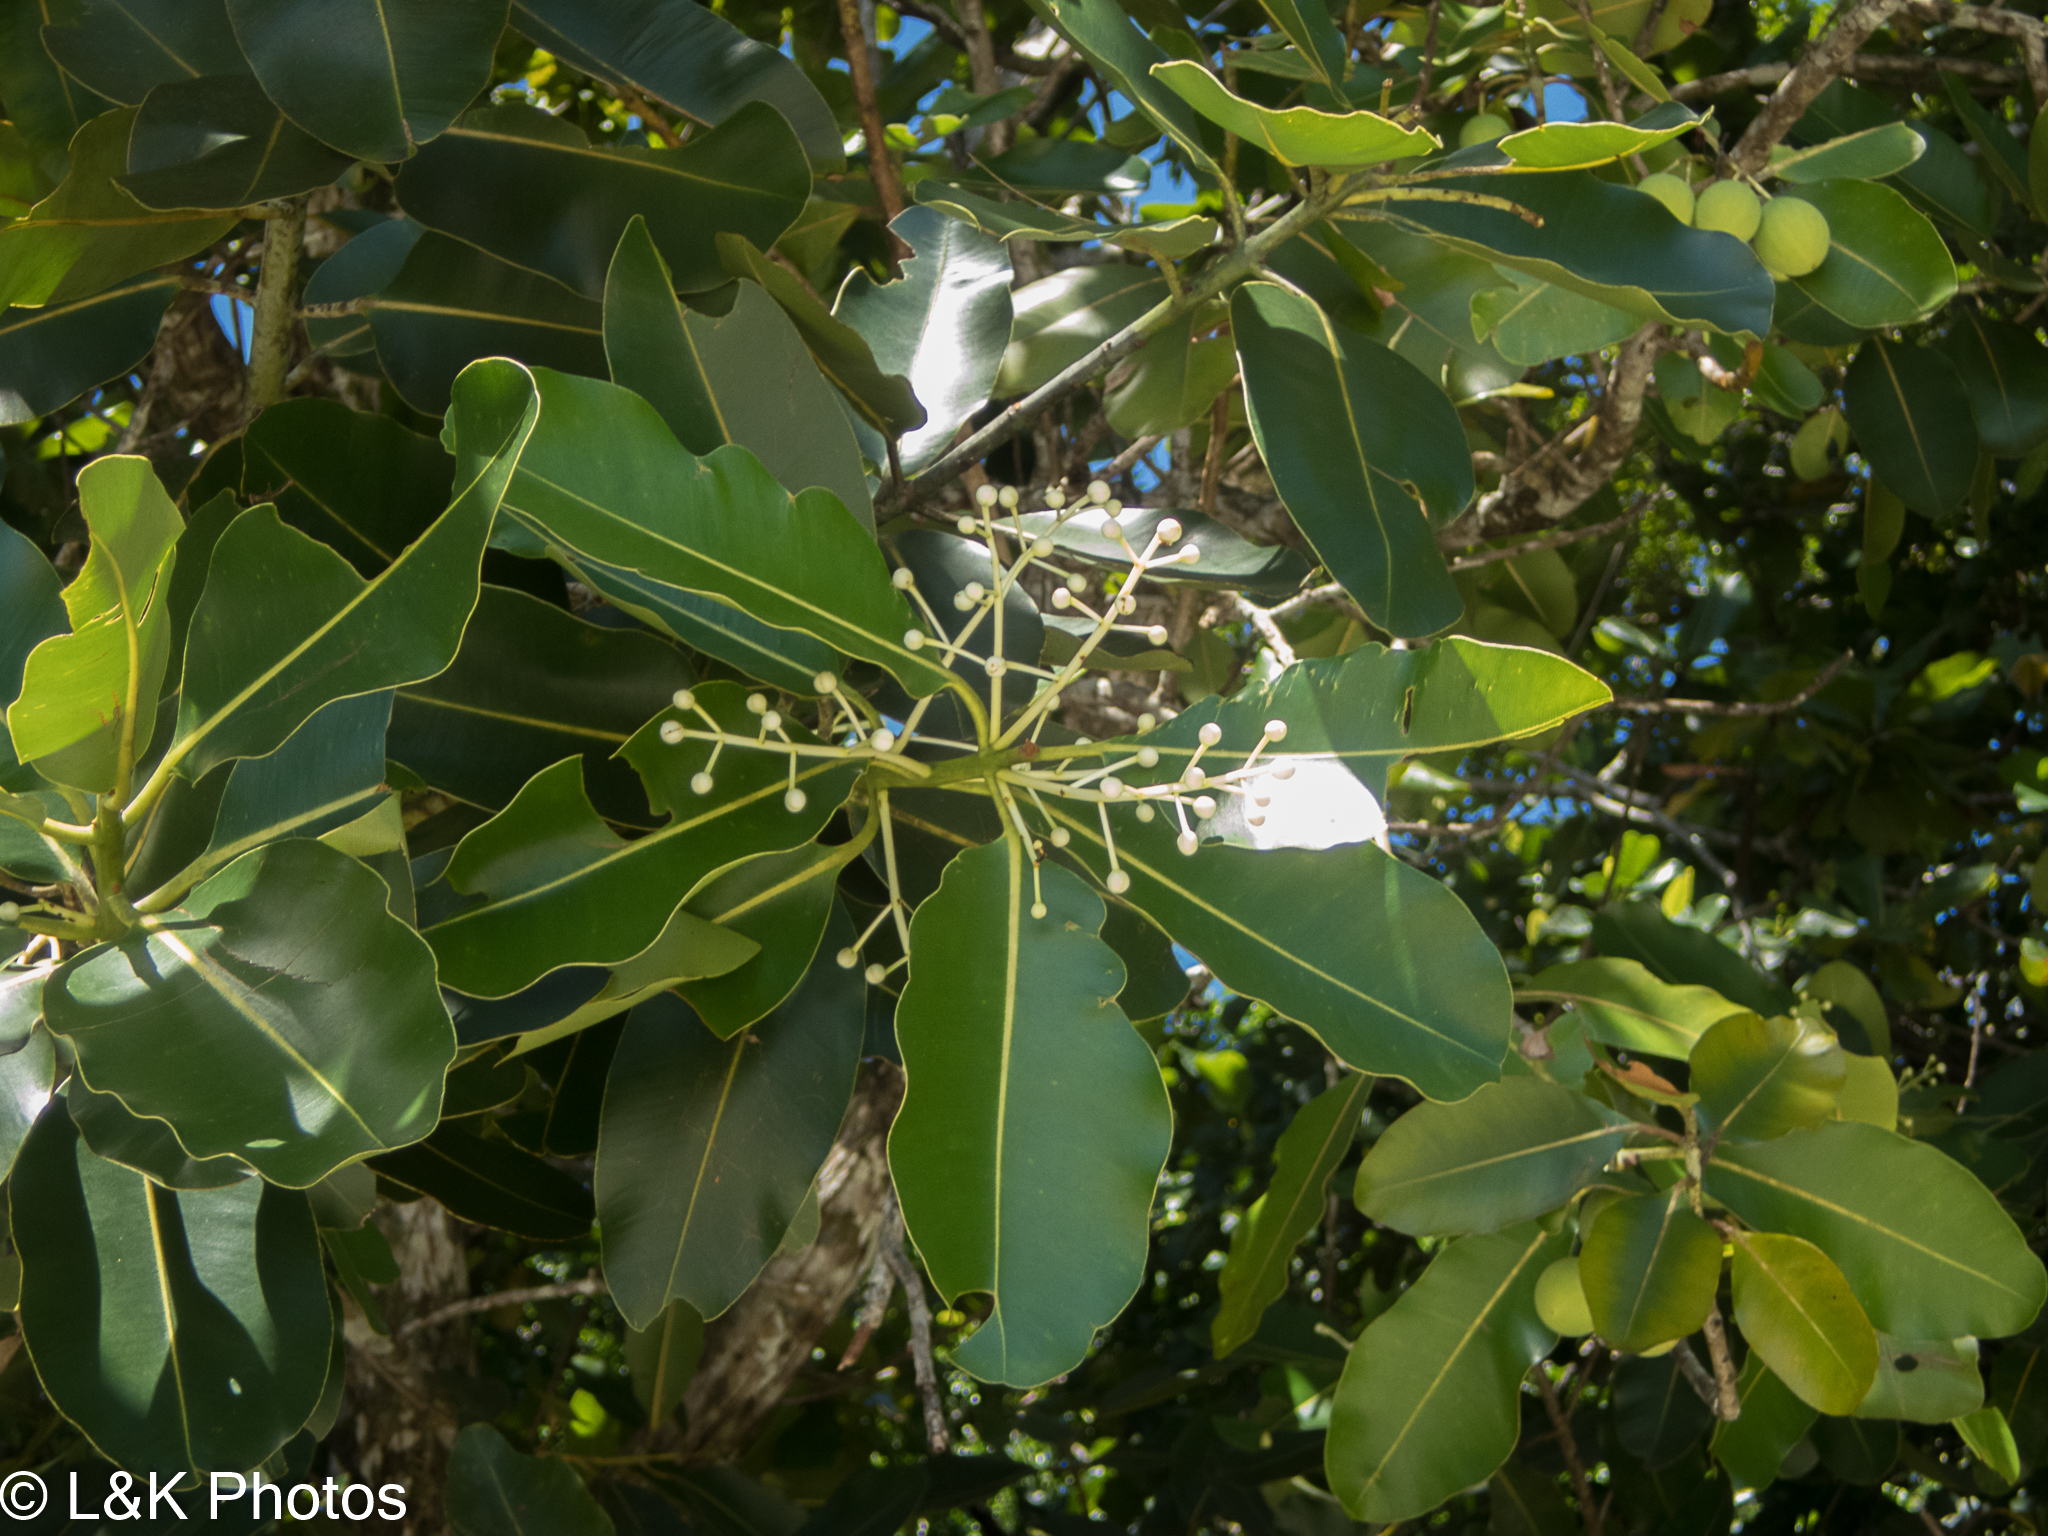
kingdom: Plantae
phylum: Tracheophyta
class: Magnoliopsida
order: Malpighiales
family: Calophyllaceae
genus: Calophyllum
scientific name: Calophyllum inophyllum
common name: Alexandrian laurel
